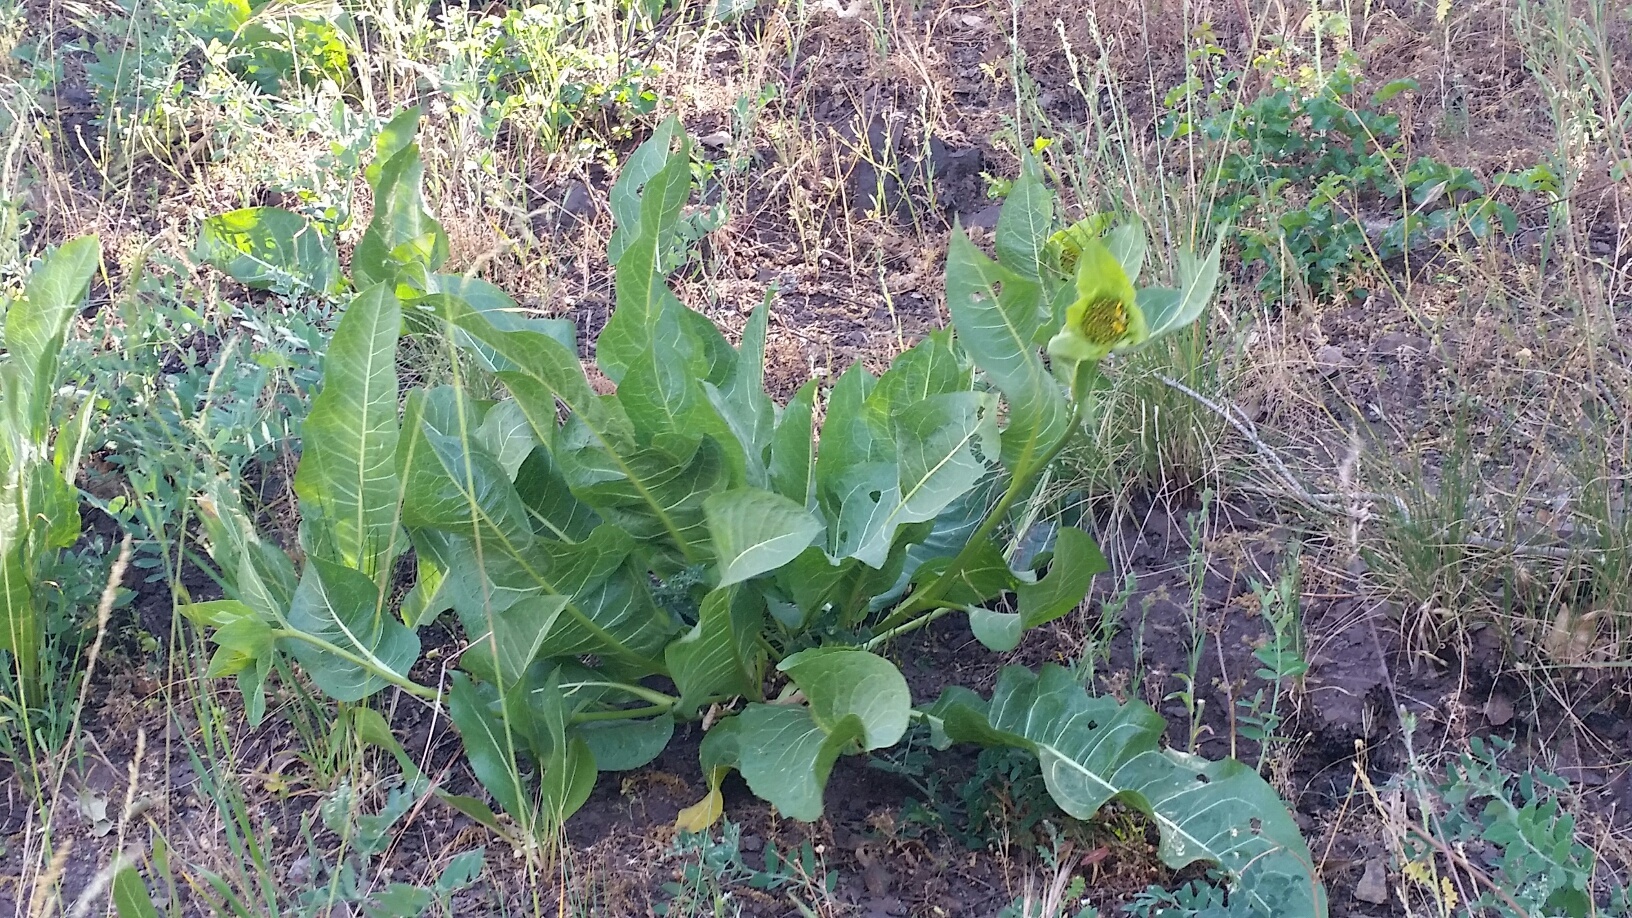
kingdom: Plantae
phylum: Tracheophyta
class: Magnoliopsida
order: Asterales
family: Asteraceae
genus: Wyethia
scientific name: Wyethia glabra
